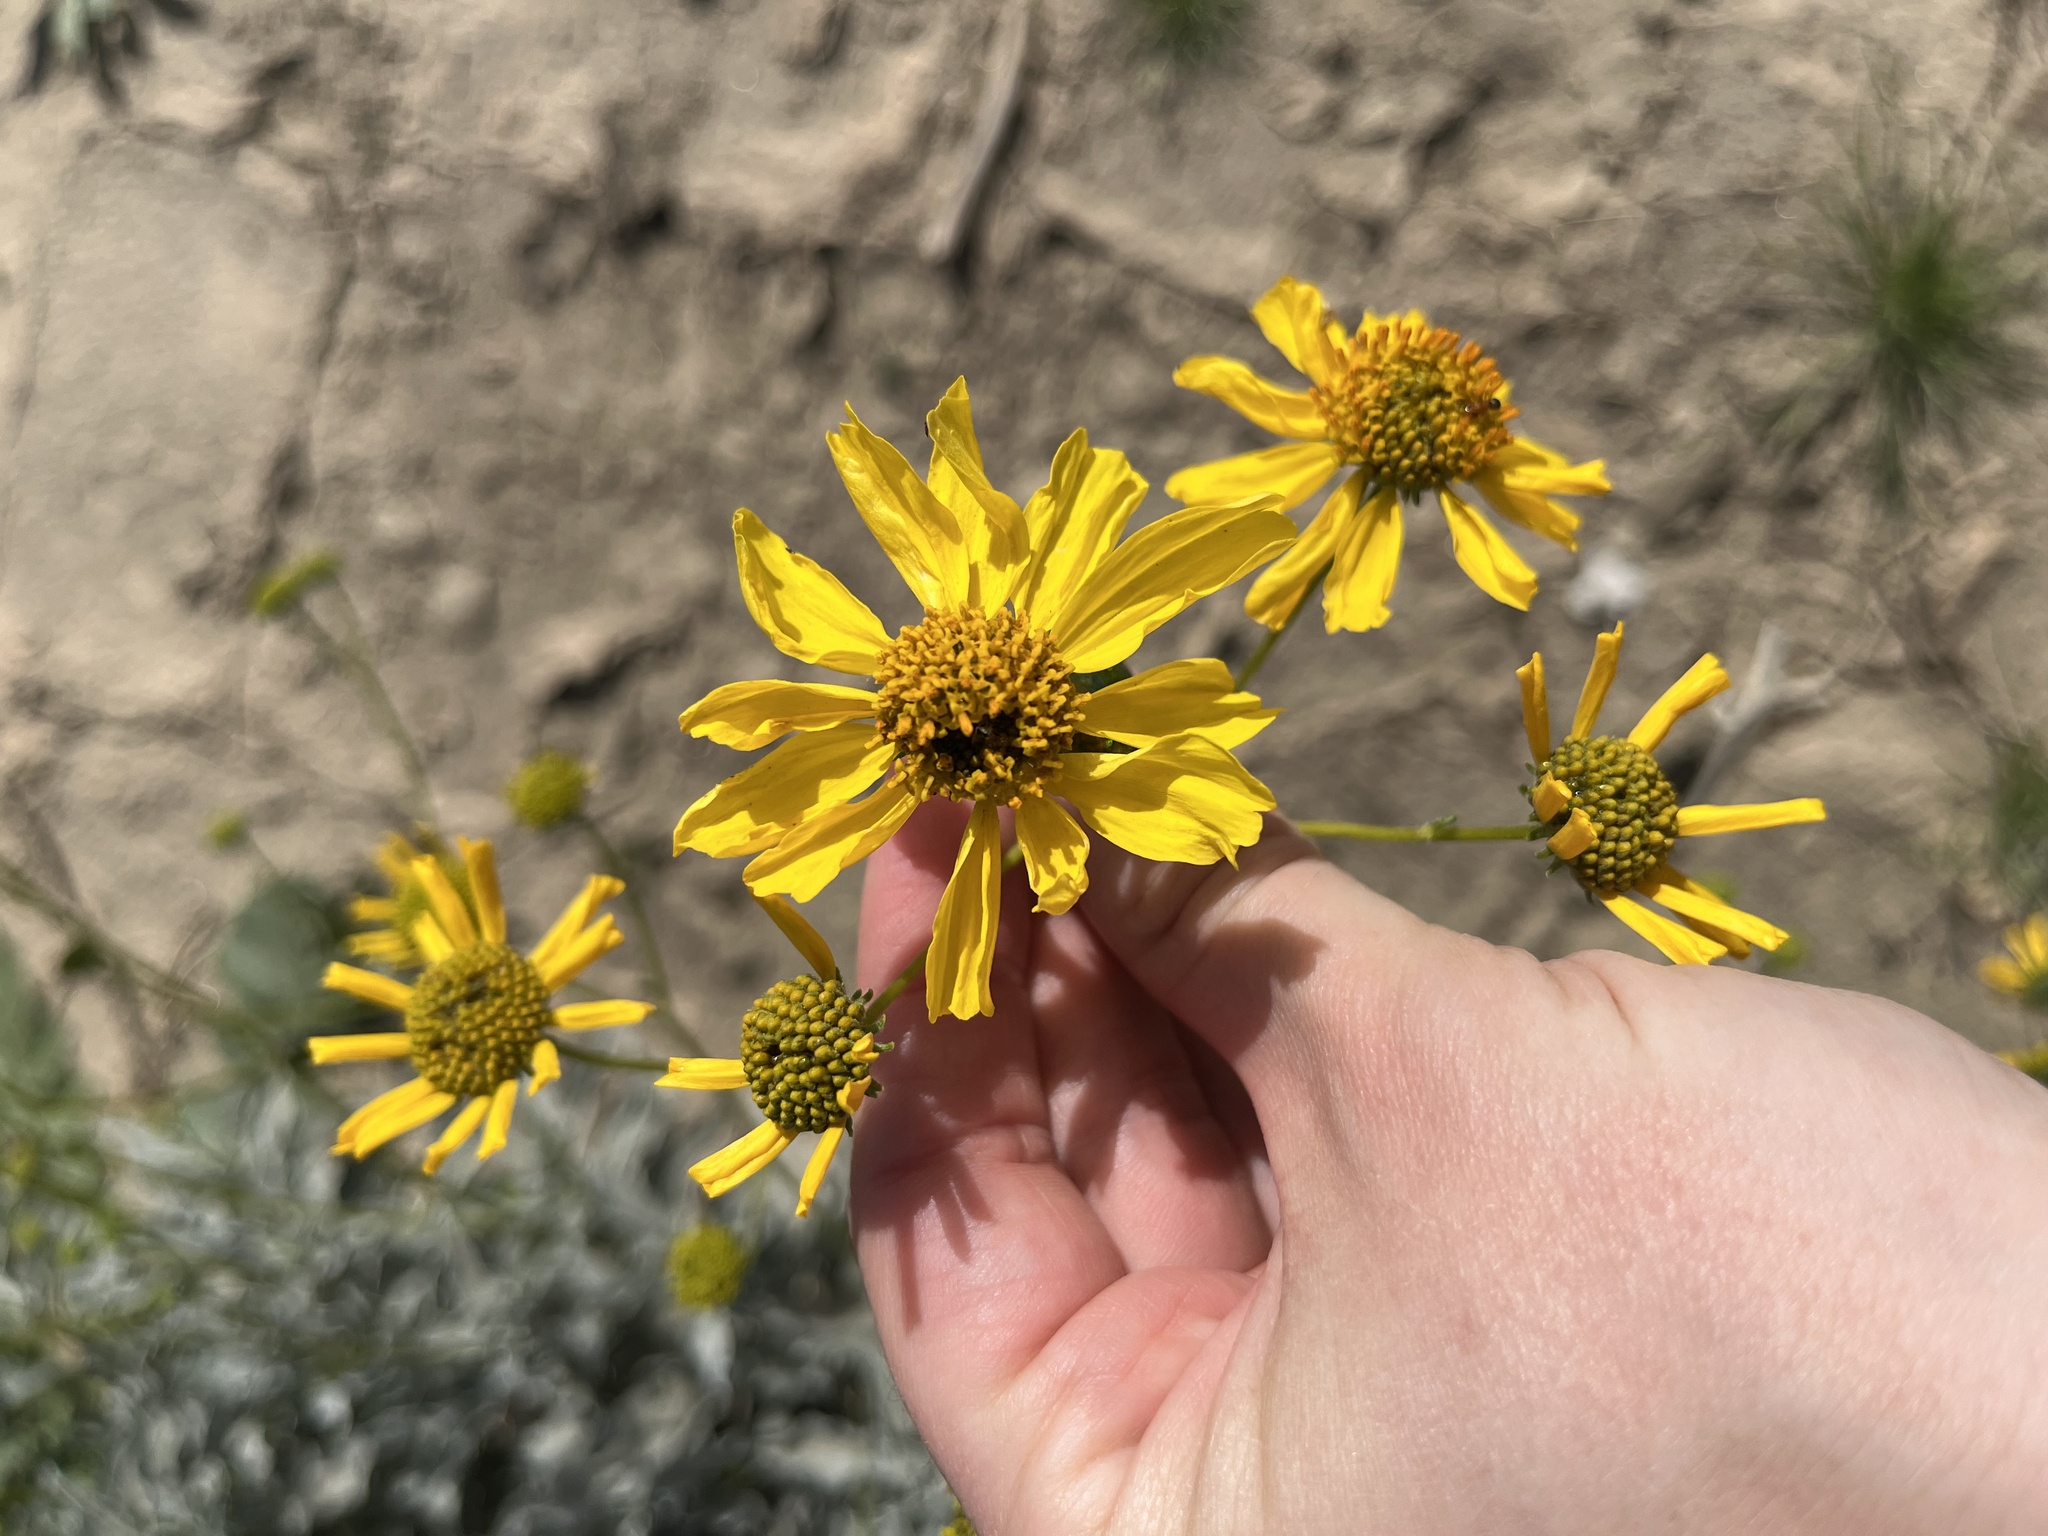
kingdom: Plantae
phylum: Tracheophyta
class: Magnoliopsida
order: Asterales
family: Asteraceae
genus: Encelia
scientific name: Encelia farinosa
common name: Brittlebush
